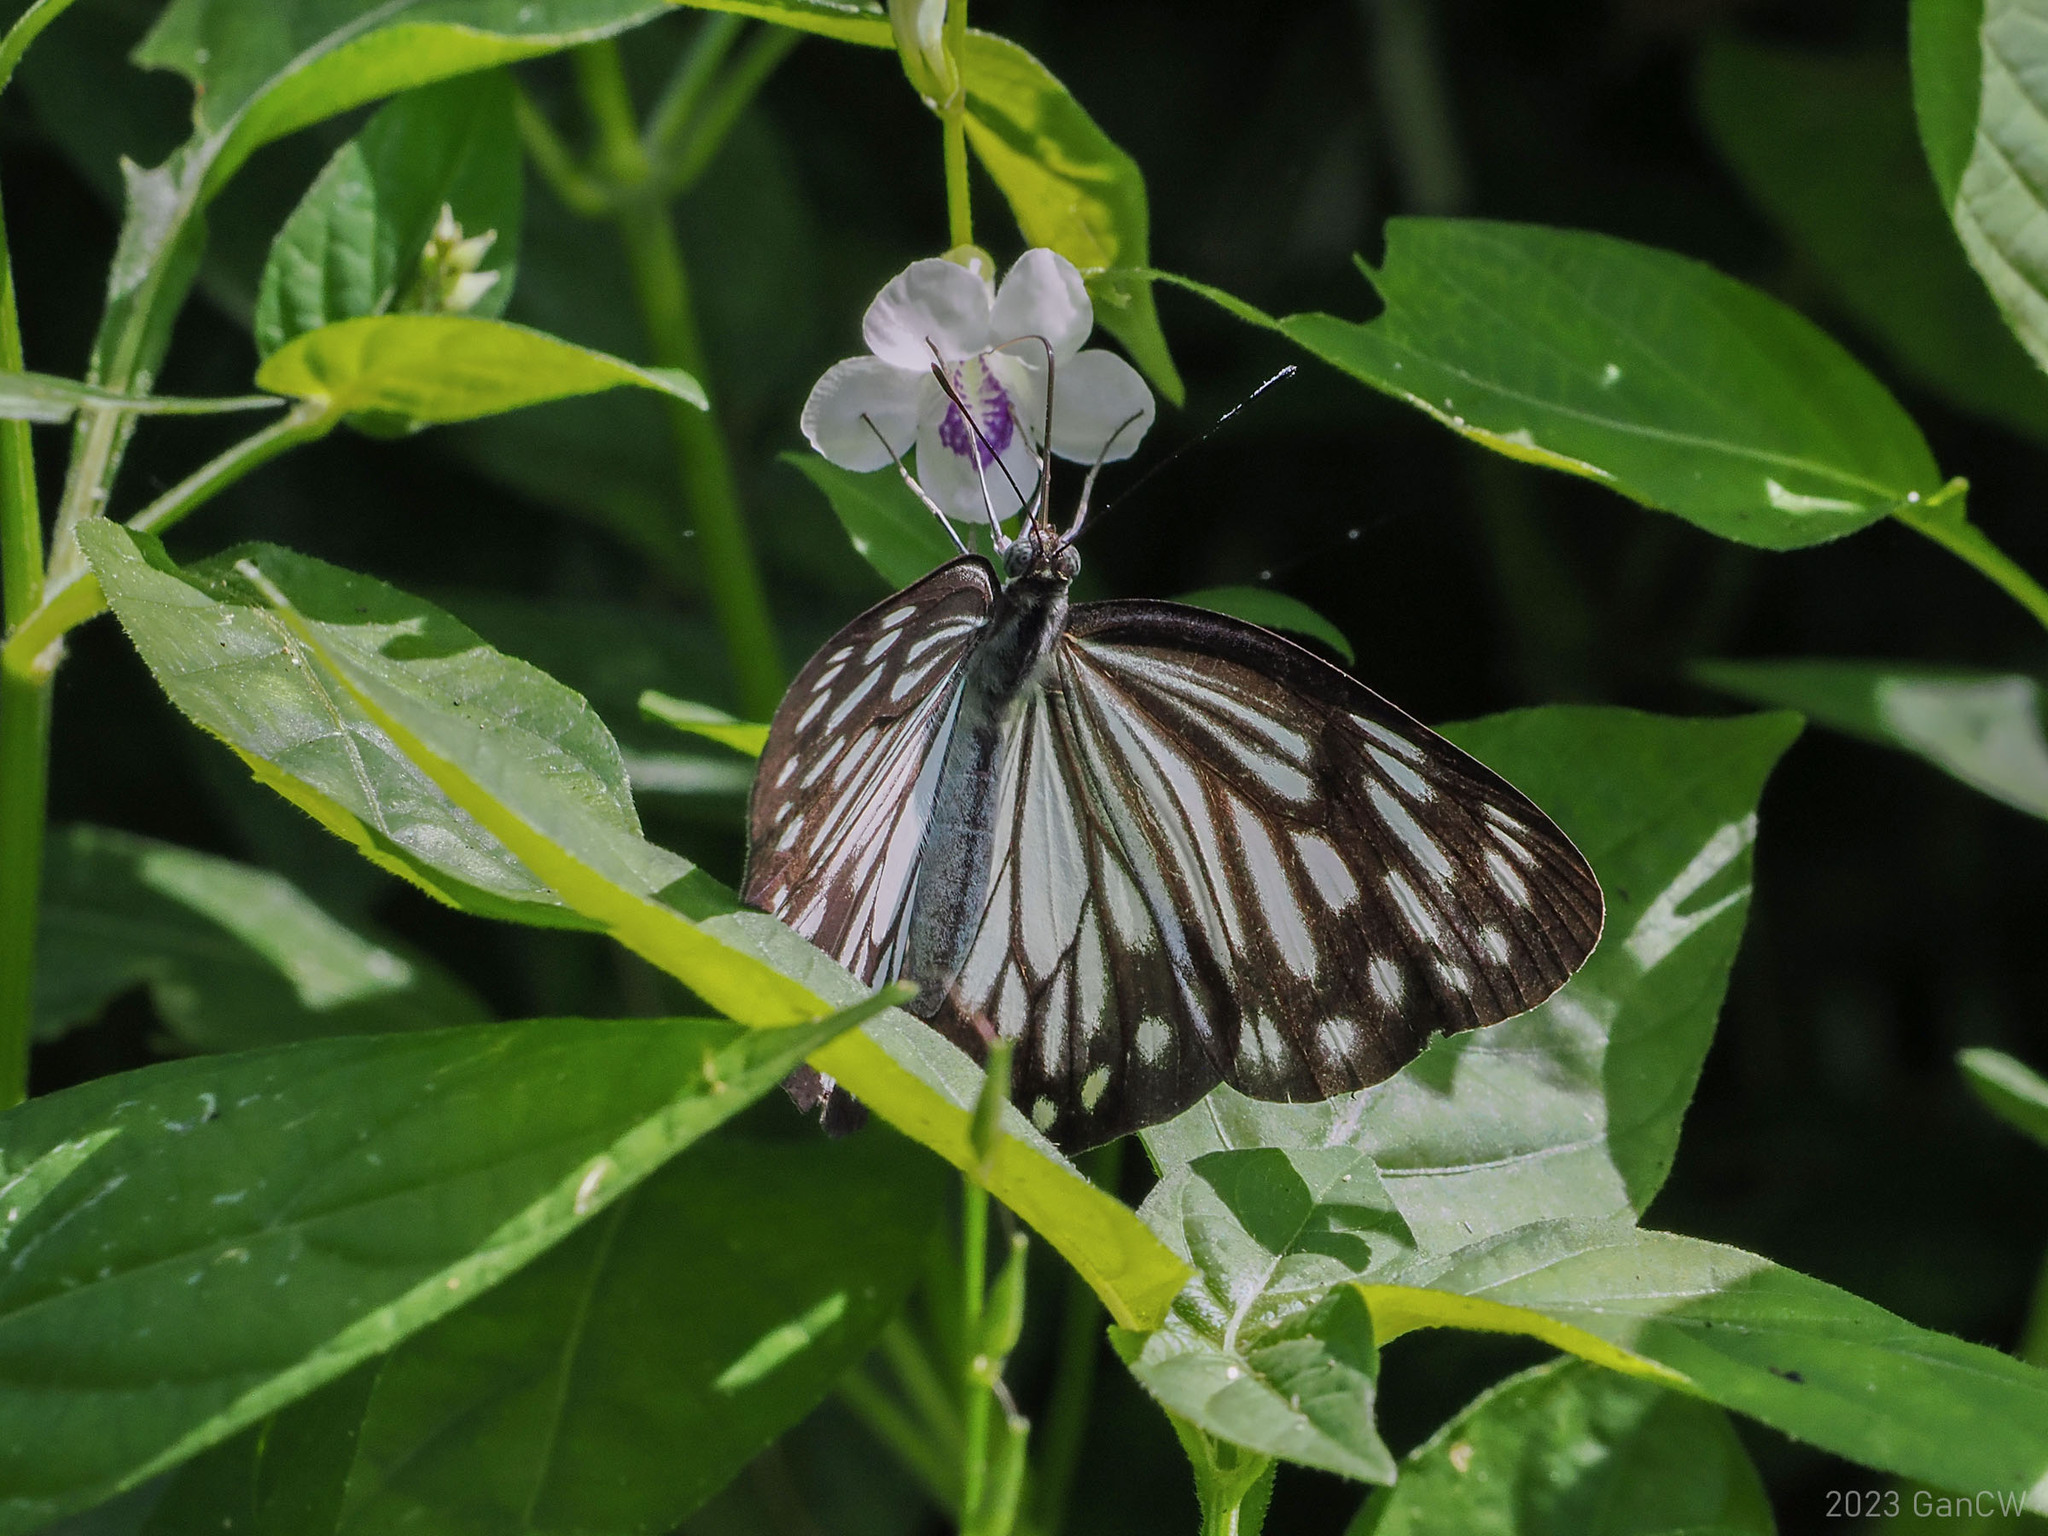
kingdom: Animalia
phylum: Arthropoda
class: Insecta
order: Lepidoptera
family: Pieridae
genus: Pareronia
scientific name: Pareronia boebera
